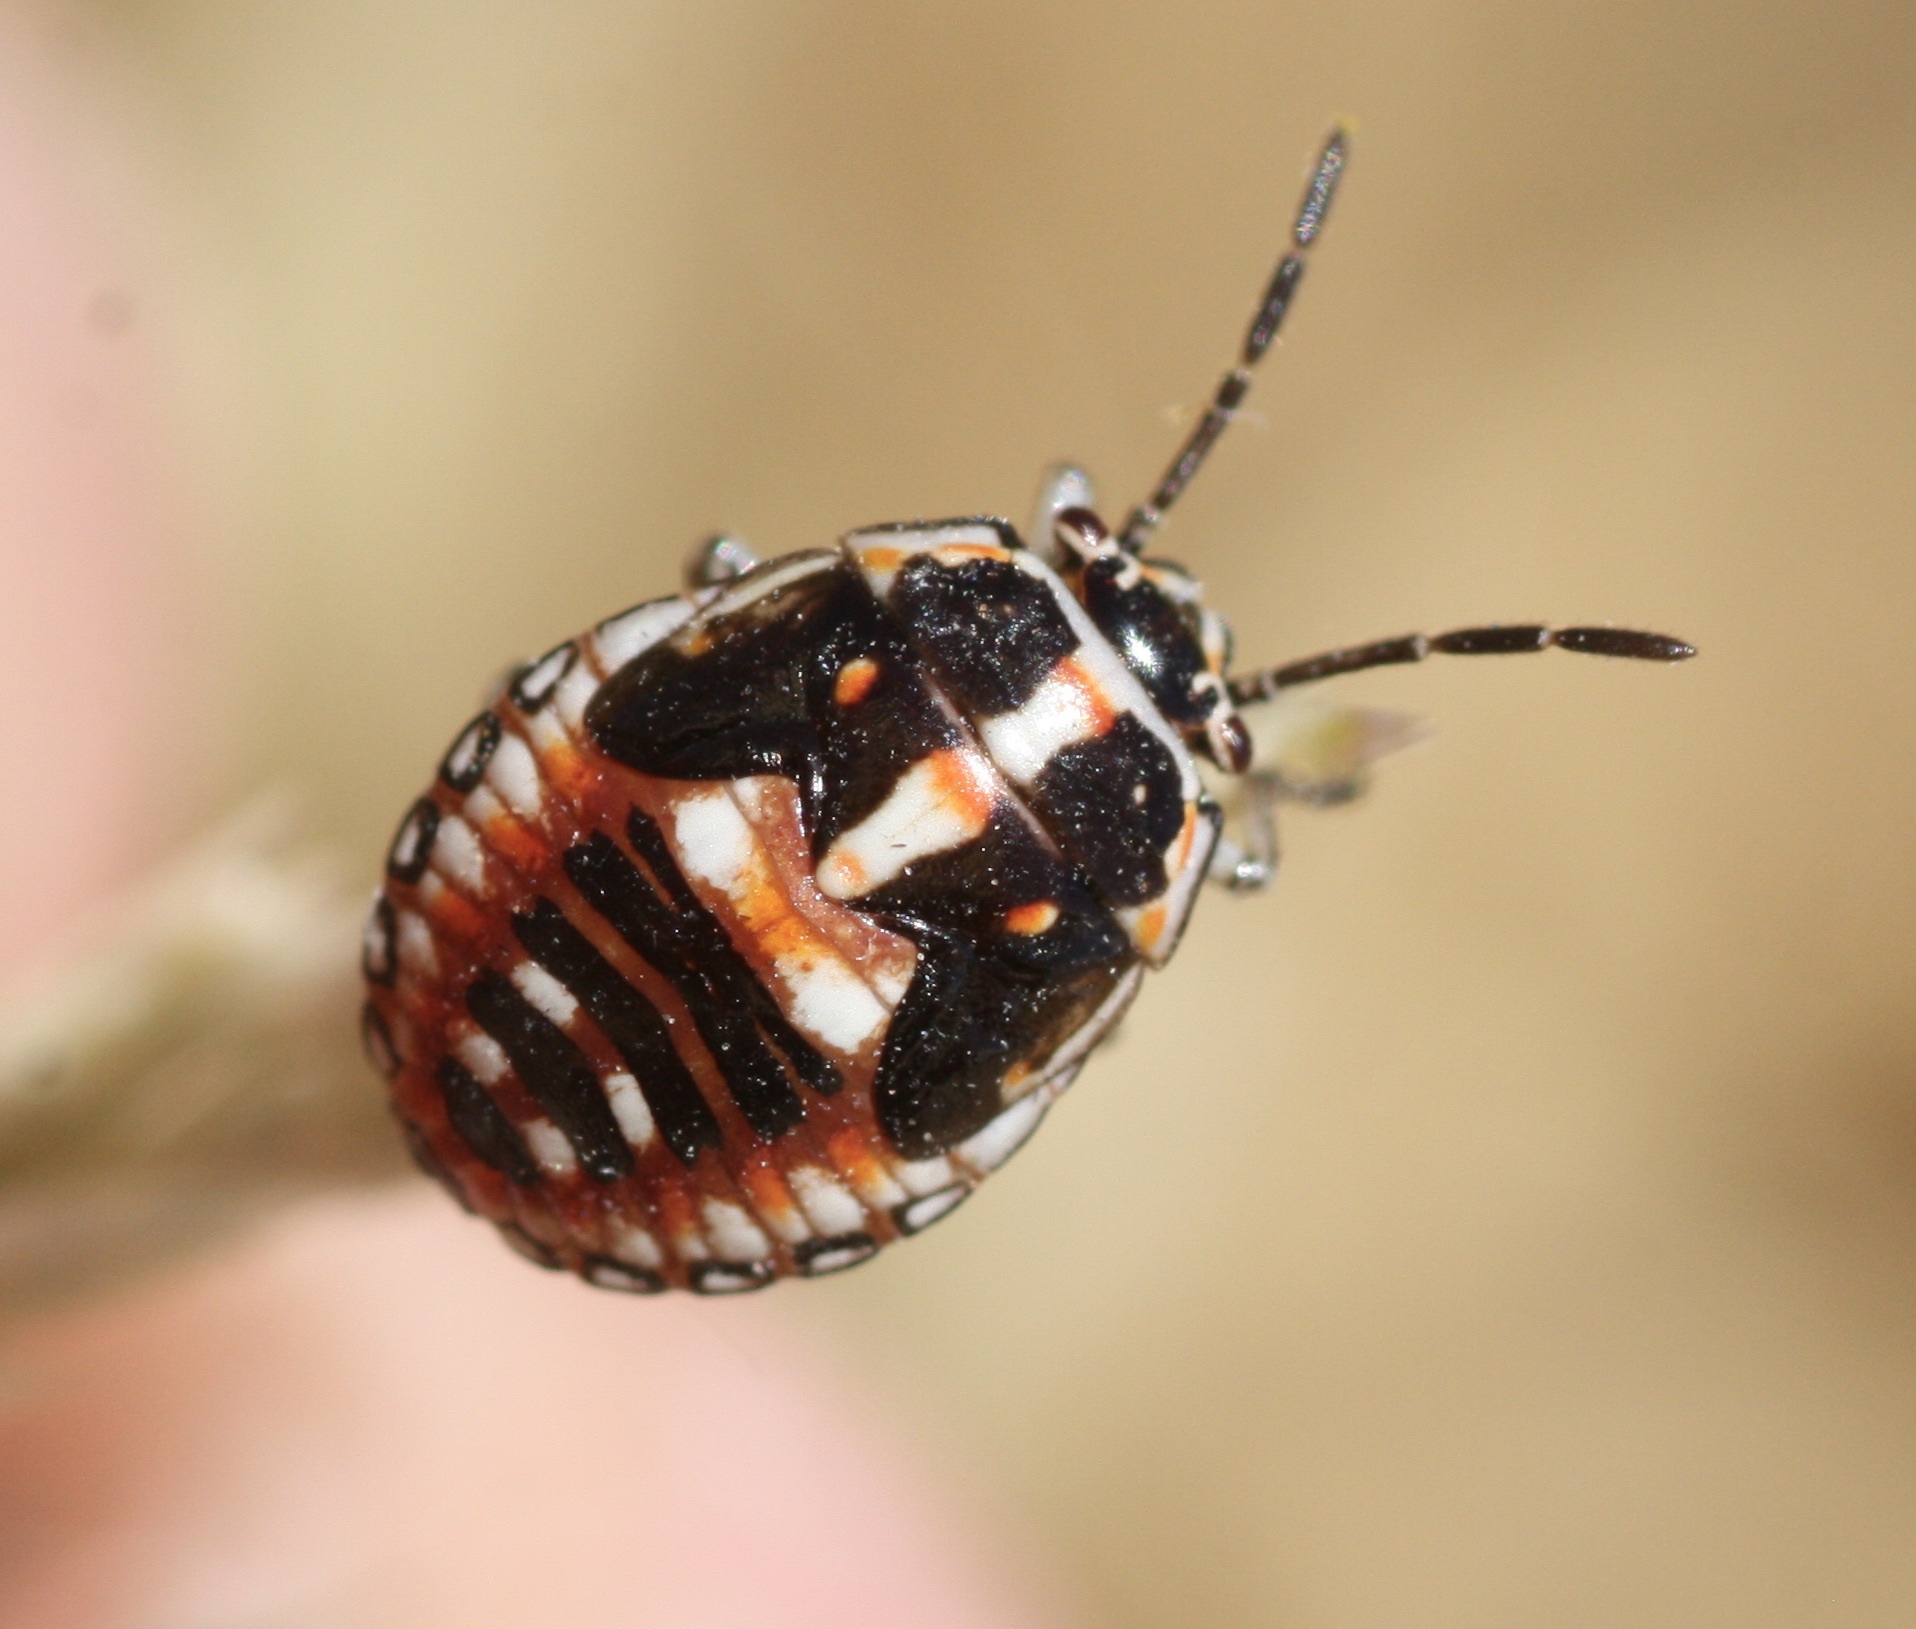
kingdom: Animalia
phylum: Arthropoda
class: Insecta
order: Hemiptera
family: Pentatomidae
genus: Bagrada
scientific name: Bagrada hilaris
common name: Bagrada bug
